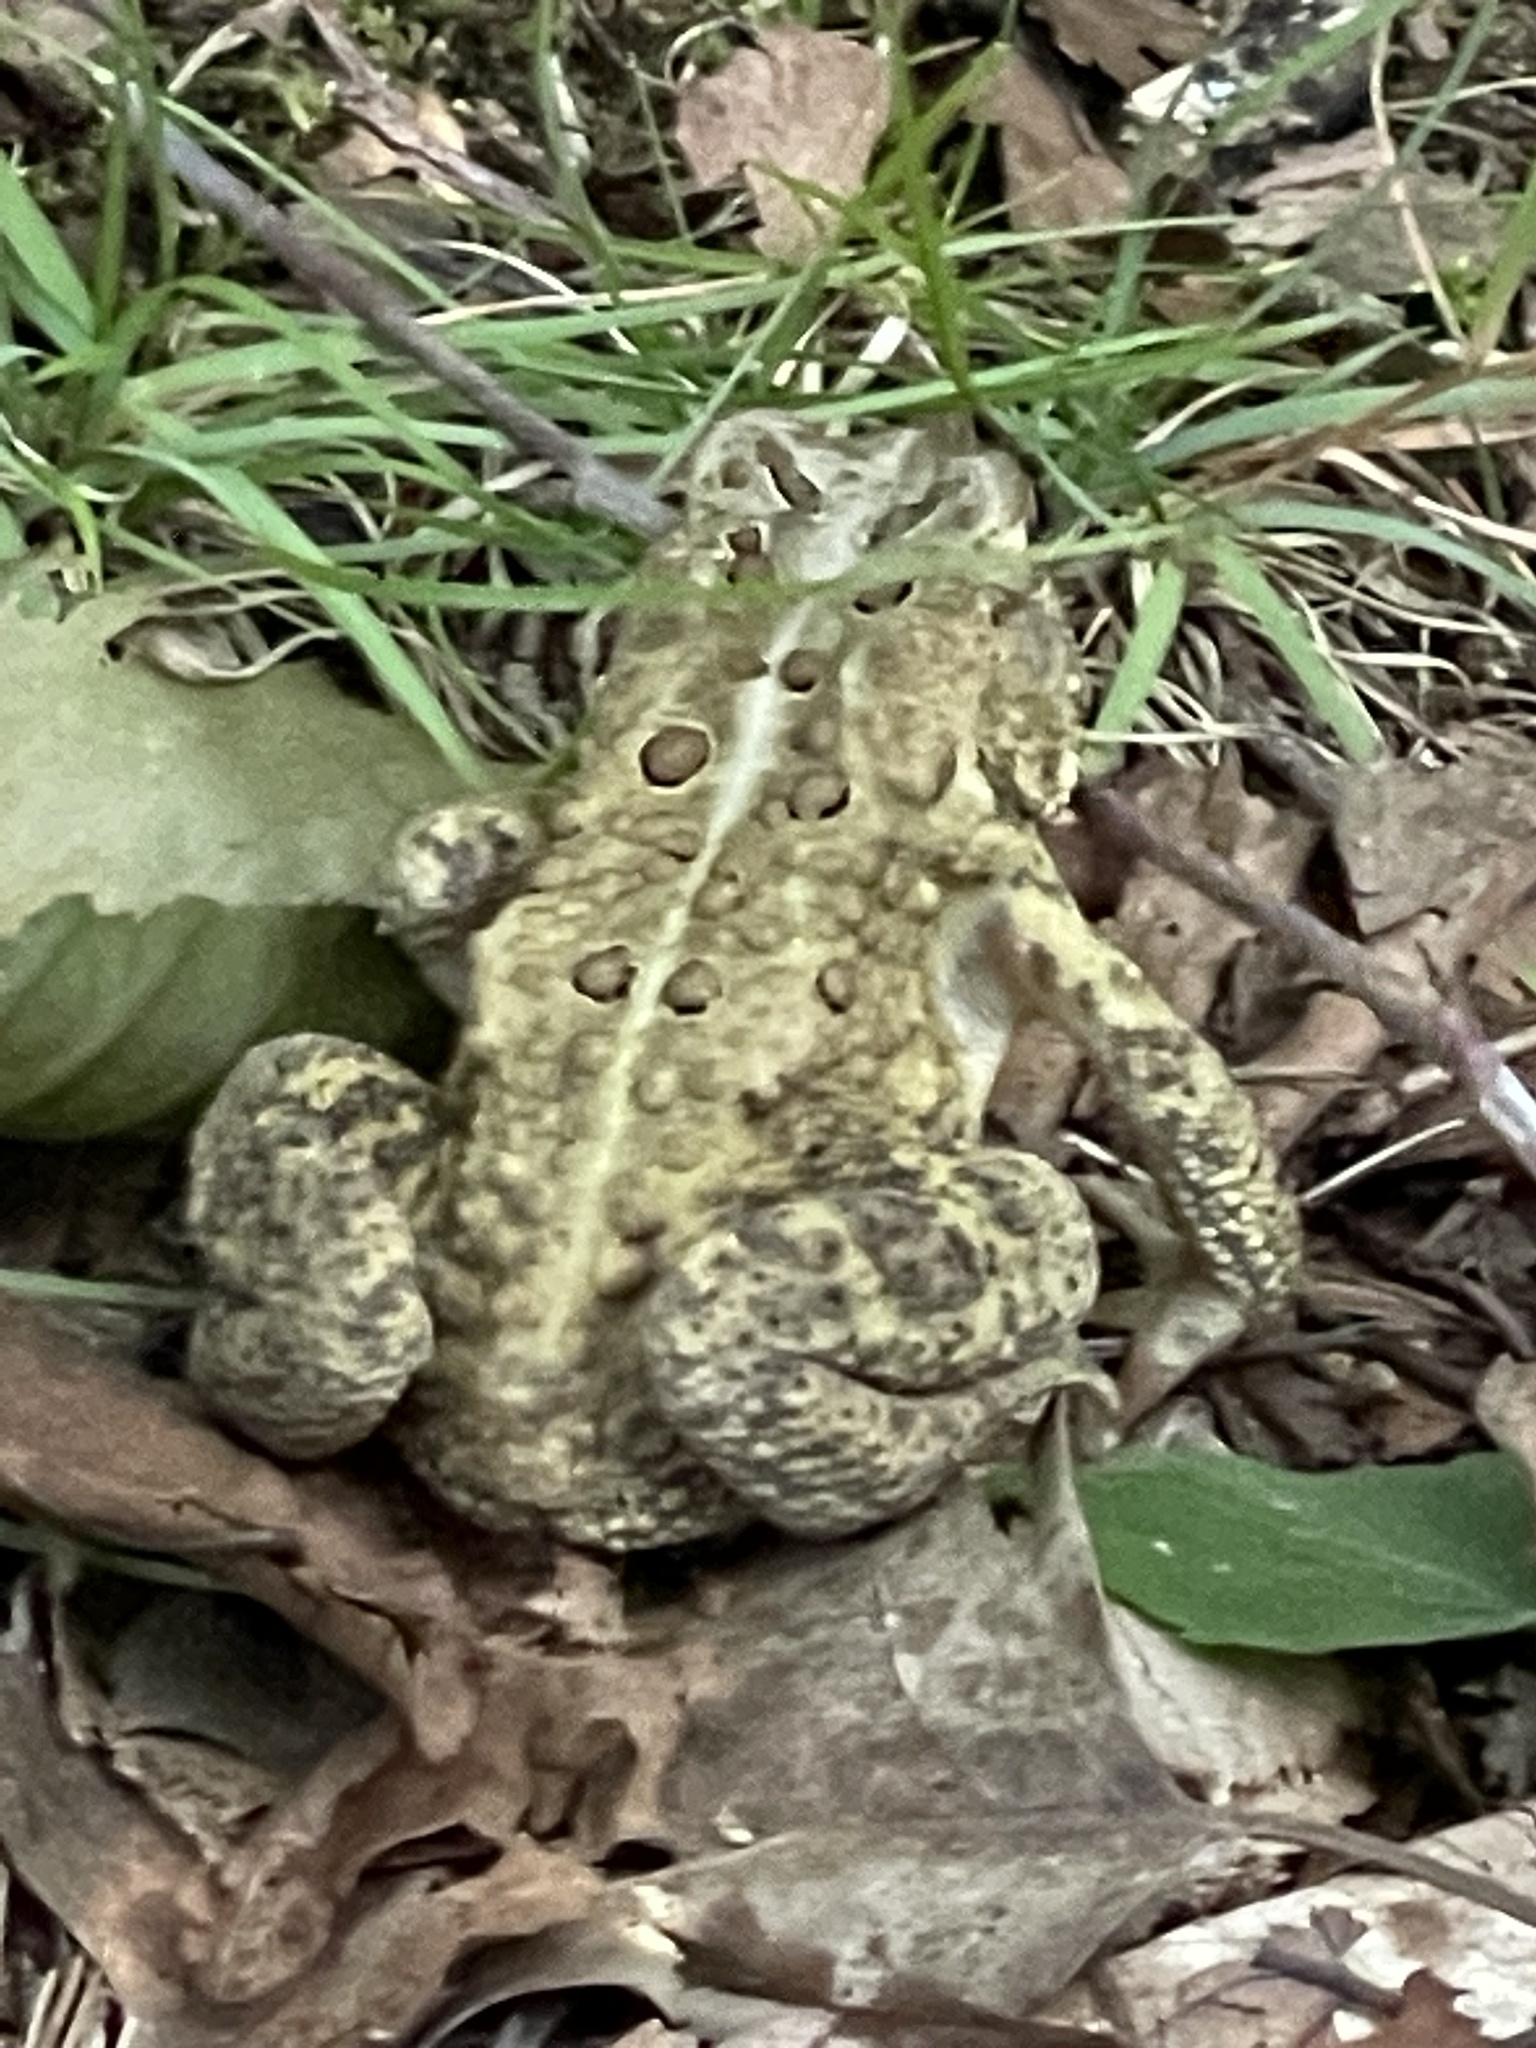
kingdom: Animalia
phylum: Chordata
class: Amphibia
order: Anura
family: Bufonidae
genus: Anaxyrus
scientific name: Anaxyrus americanus
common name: American toad
